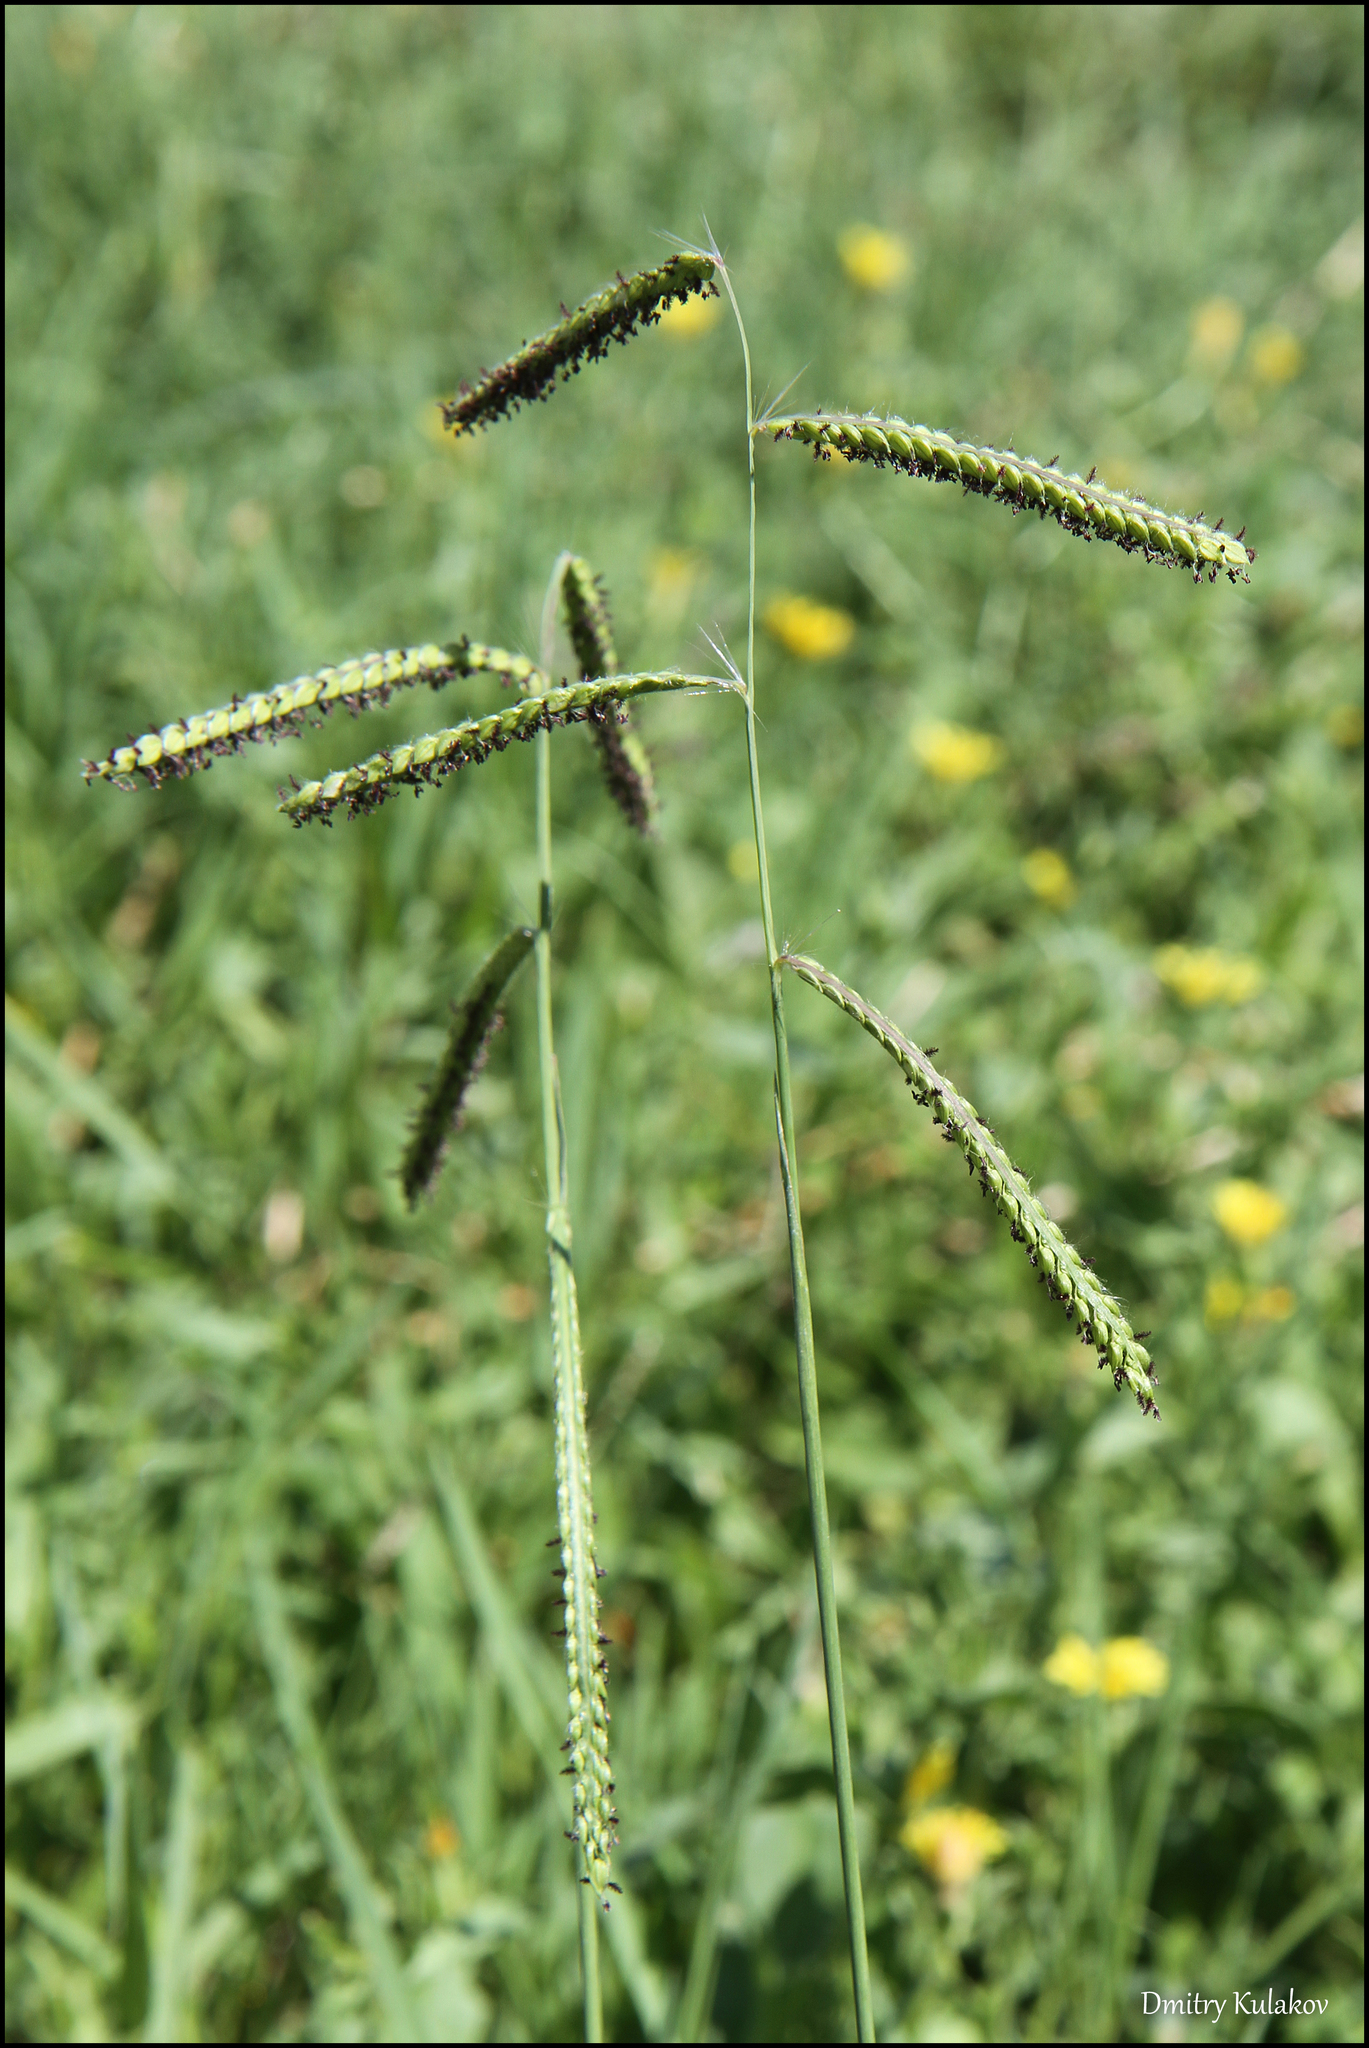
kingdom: Plantae
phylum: Tracheophyta
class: Liliopsida
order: Poales
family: Poaceae
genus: Paspalum
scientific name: Paspalum dilatatum
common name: Dallisgrass
